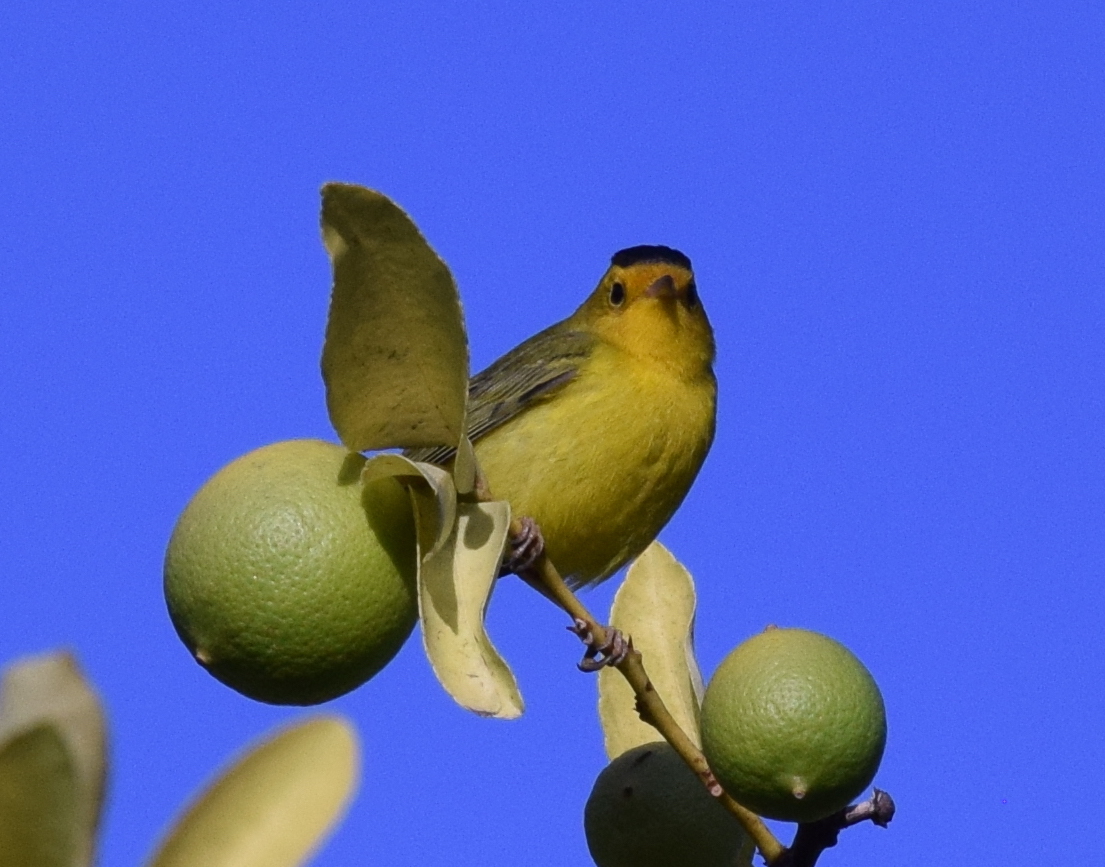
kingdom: Animalia
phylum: Chordata
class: Aves
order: Passeriformes
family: Parulidae
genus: Cardellina
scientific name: Cardellina pusilla
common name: Wilson's warbler
